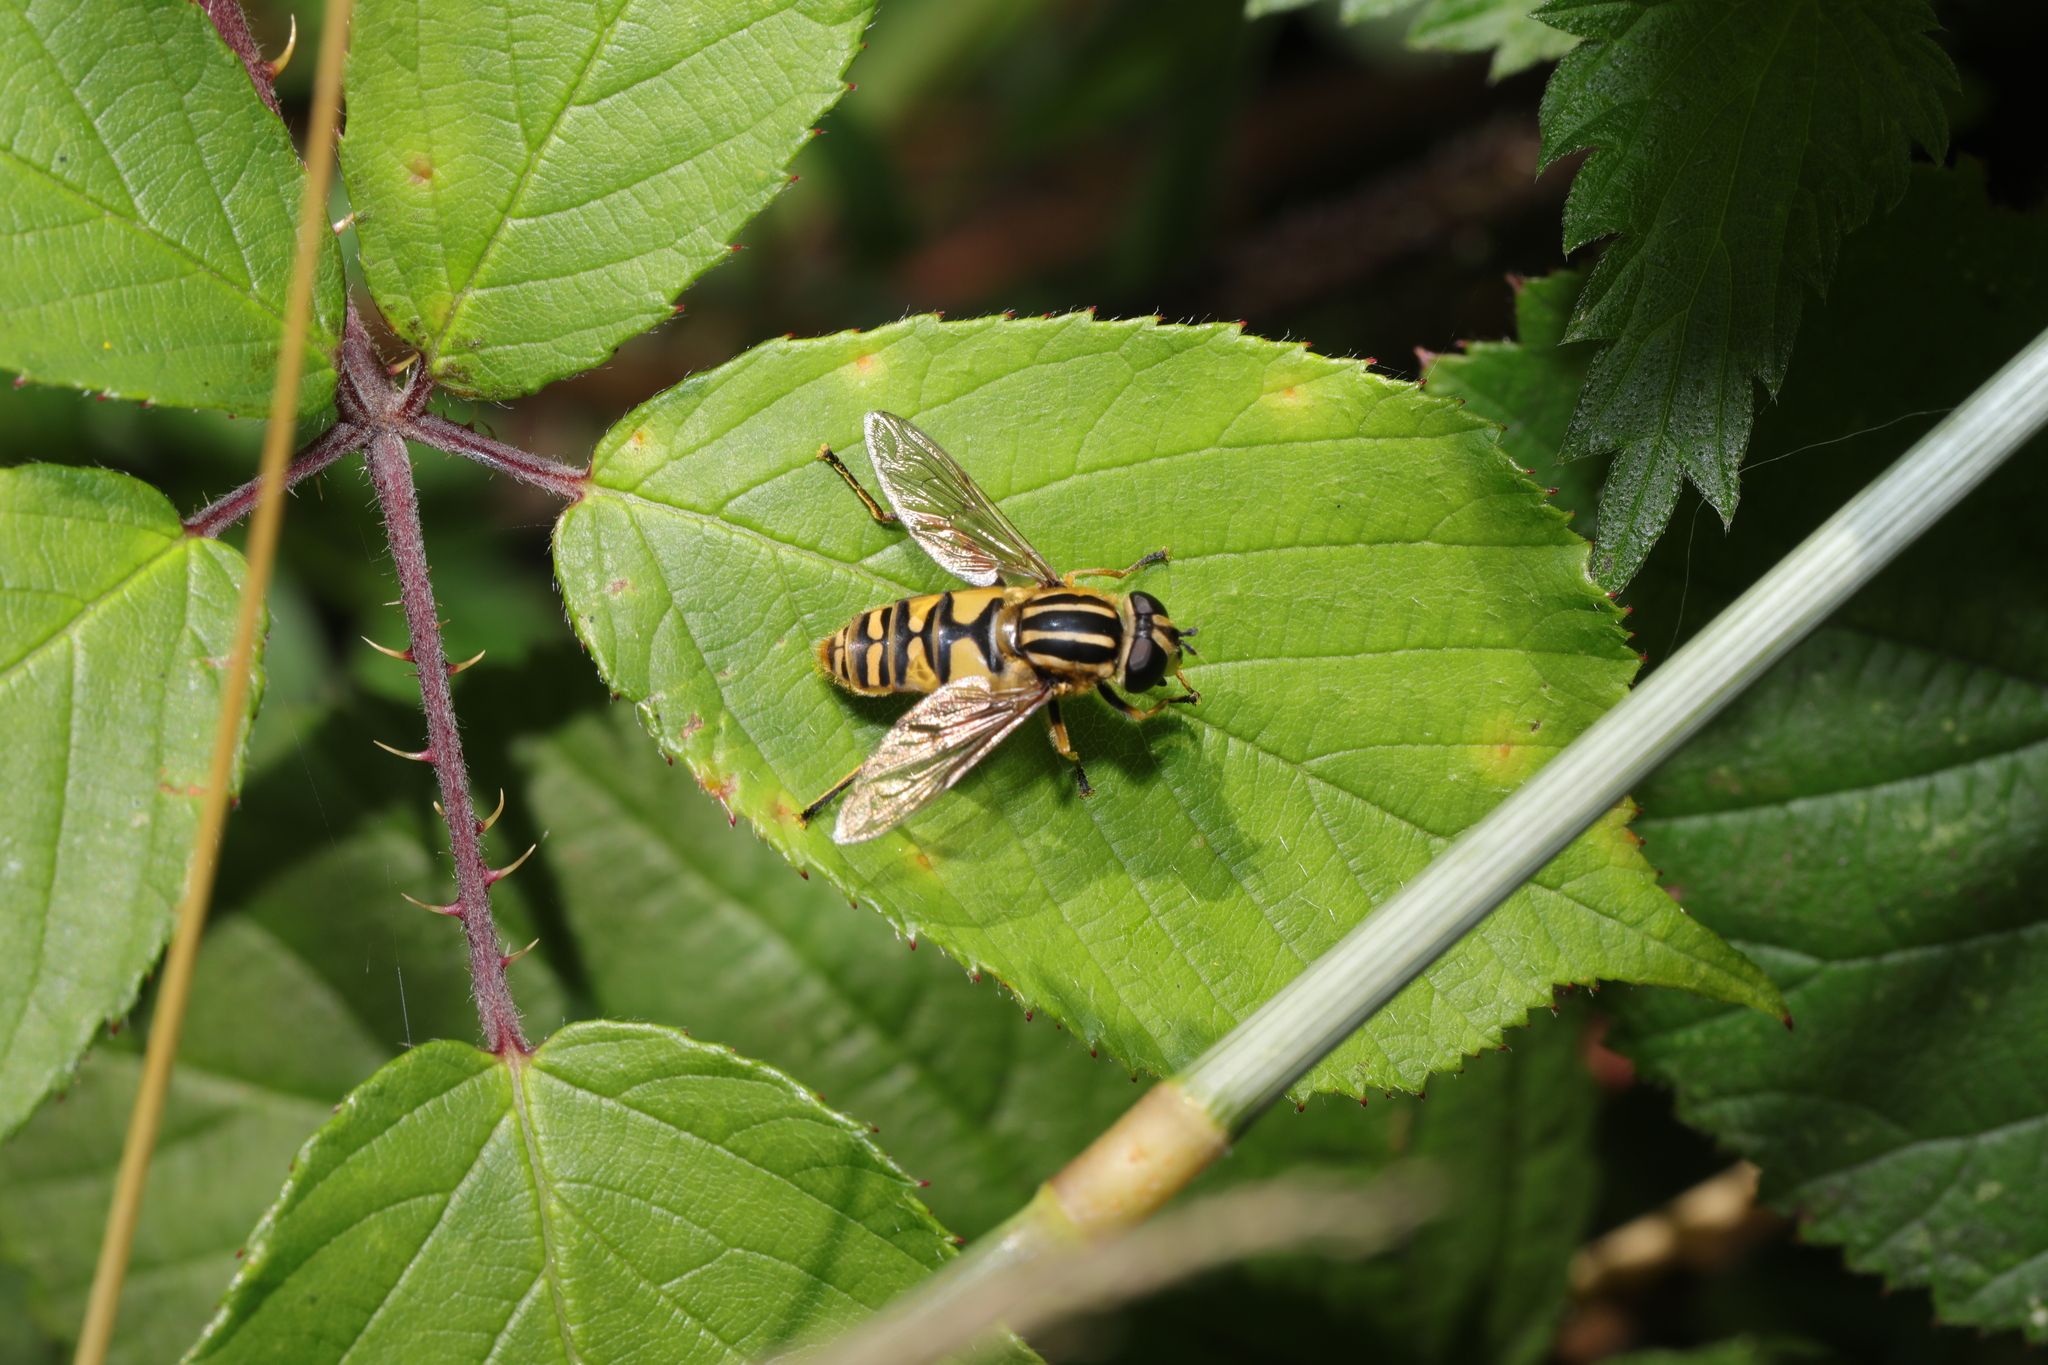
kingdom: Animalia
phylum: Arthropoda
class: Insecta
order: Diptera
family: Syrphidae
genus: Helophilus
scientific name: Helophilus pendulus
